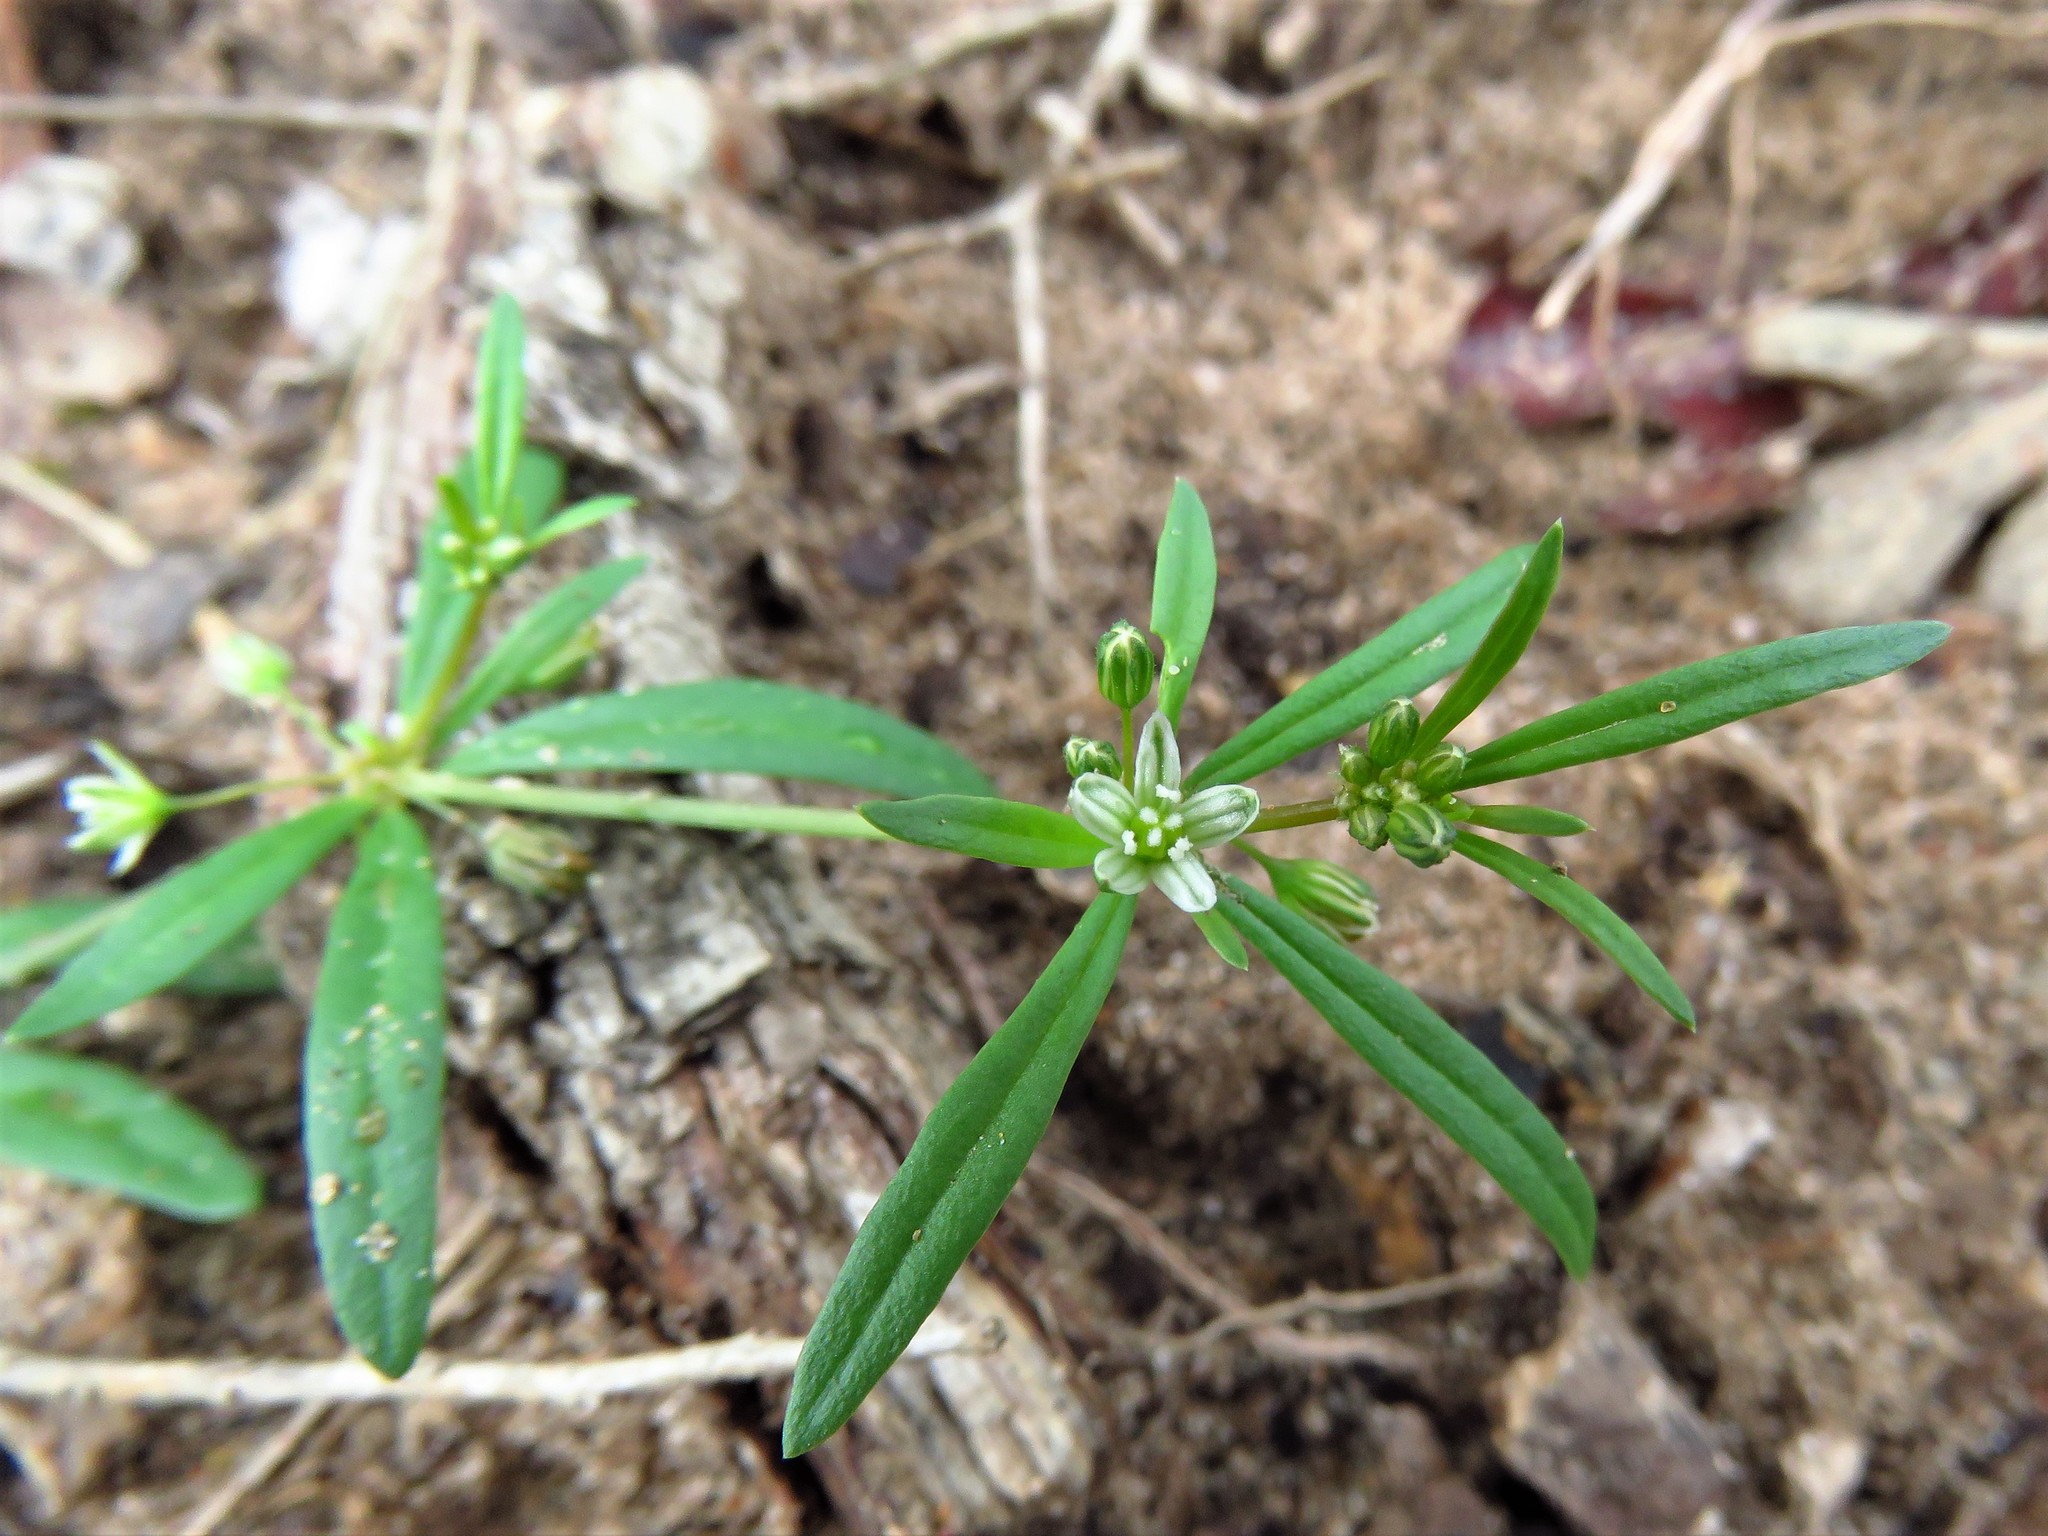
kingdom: Plantae
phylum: Tracheophyta
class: Magnoliopsida
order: Caryophyllales
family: Molluginaceae
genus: Mollugo
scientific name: Mollugo verticillata
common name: Green carpetweed
